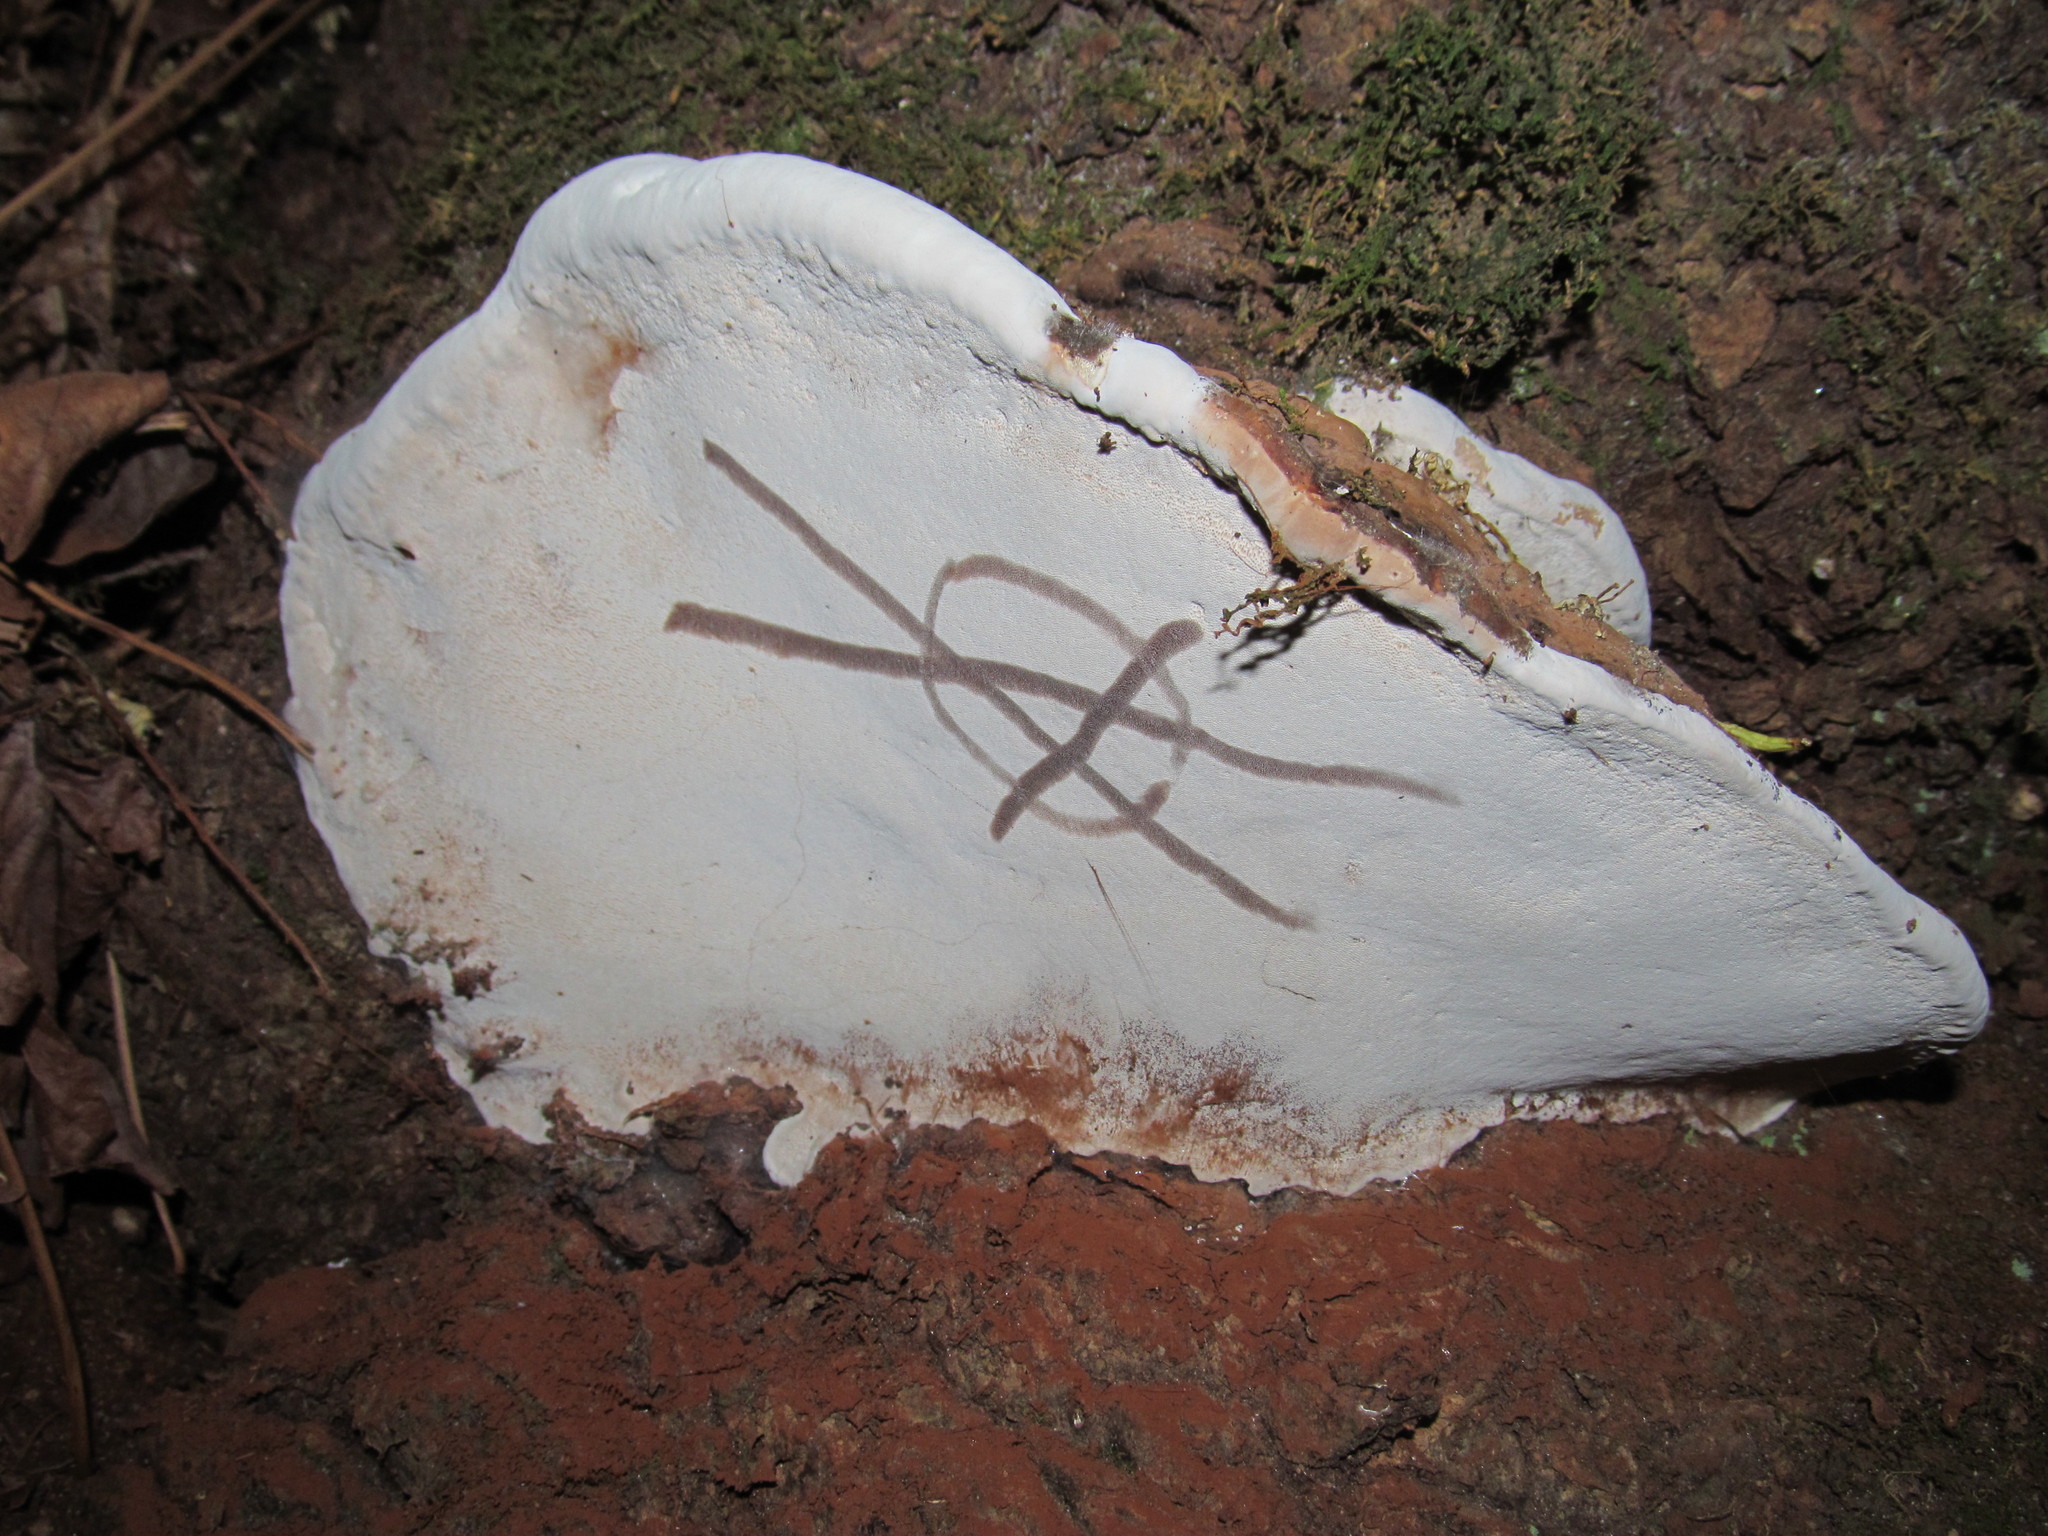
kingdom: Fungi
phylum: Basidiomycota
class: Agaricomycetes
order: Polyporales
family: Polyporaceae
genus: Ganoderma
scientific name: Ganoderma applanatum
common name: Artist's bracket
